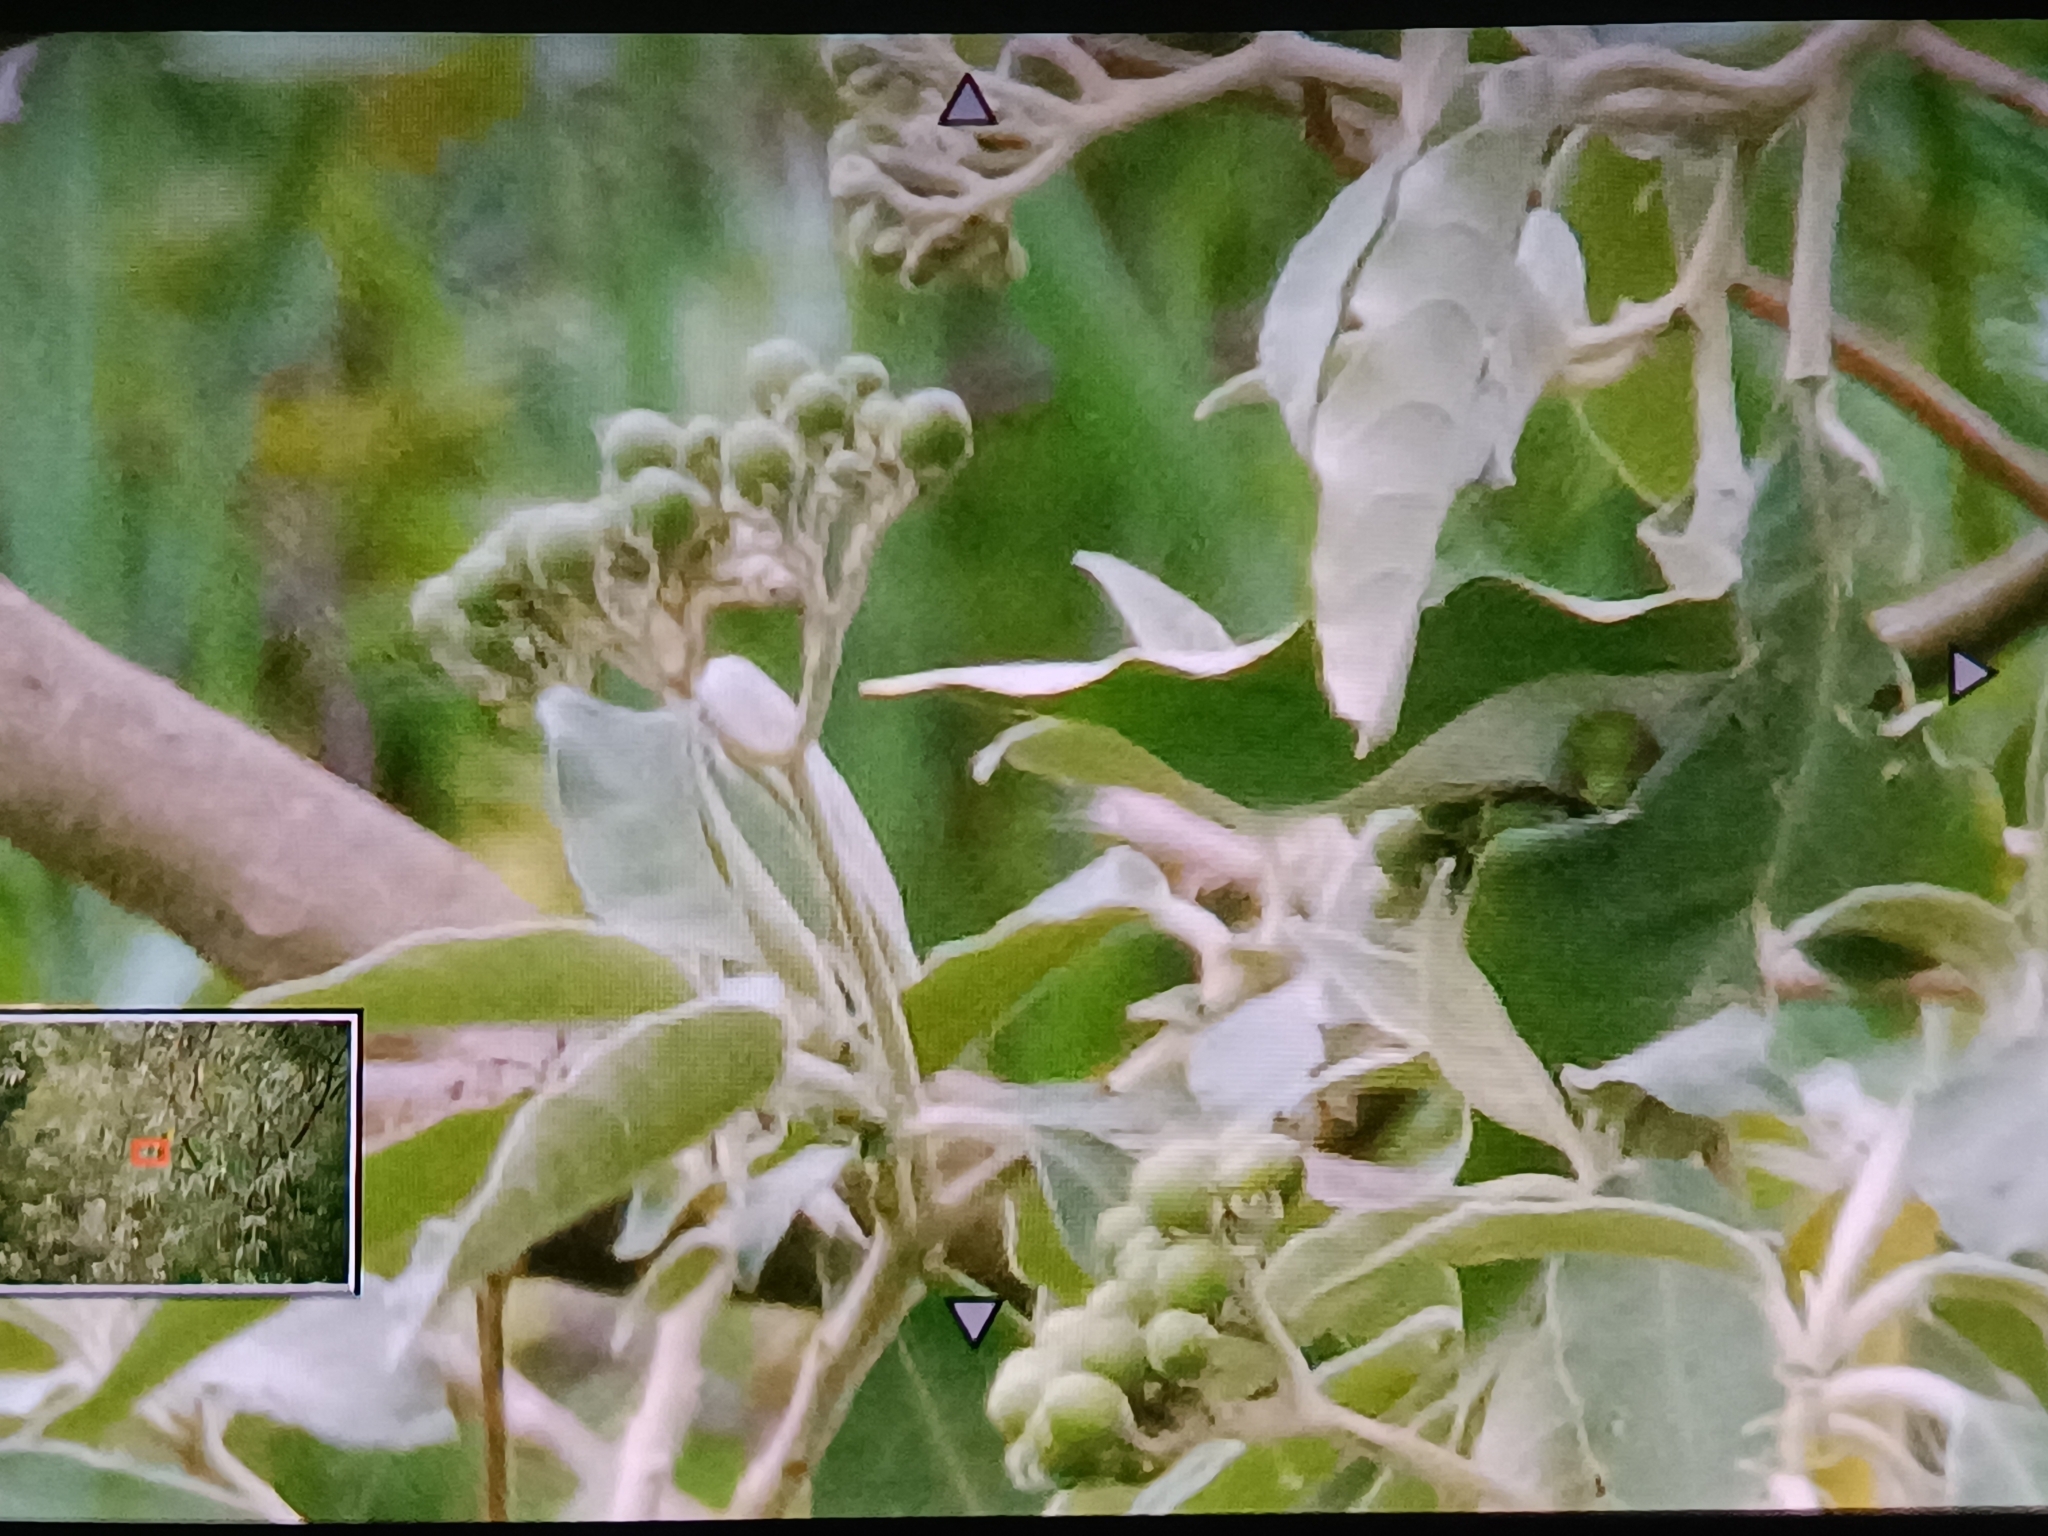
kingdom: Plantae
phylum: Tracheophyta
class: Magnoliopsida
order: Solanales
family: Solanaceae
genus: Solanum
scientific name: Solanum mauritianum
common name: Earleaf nightshade
